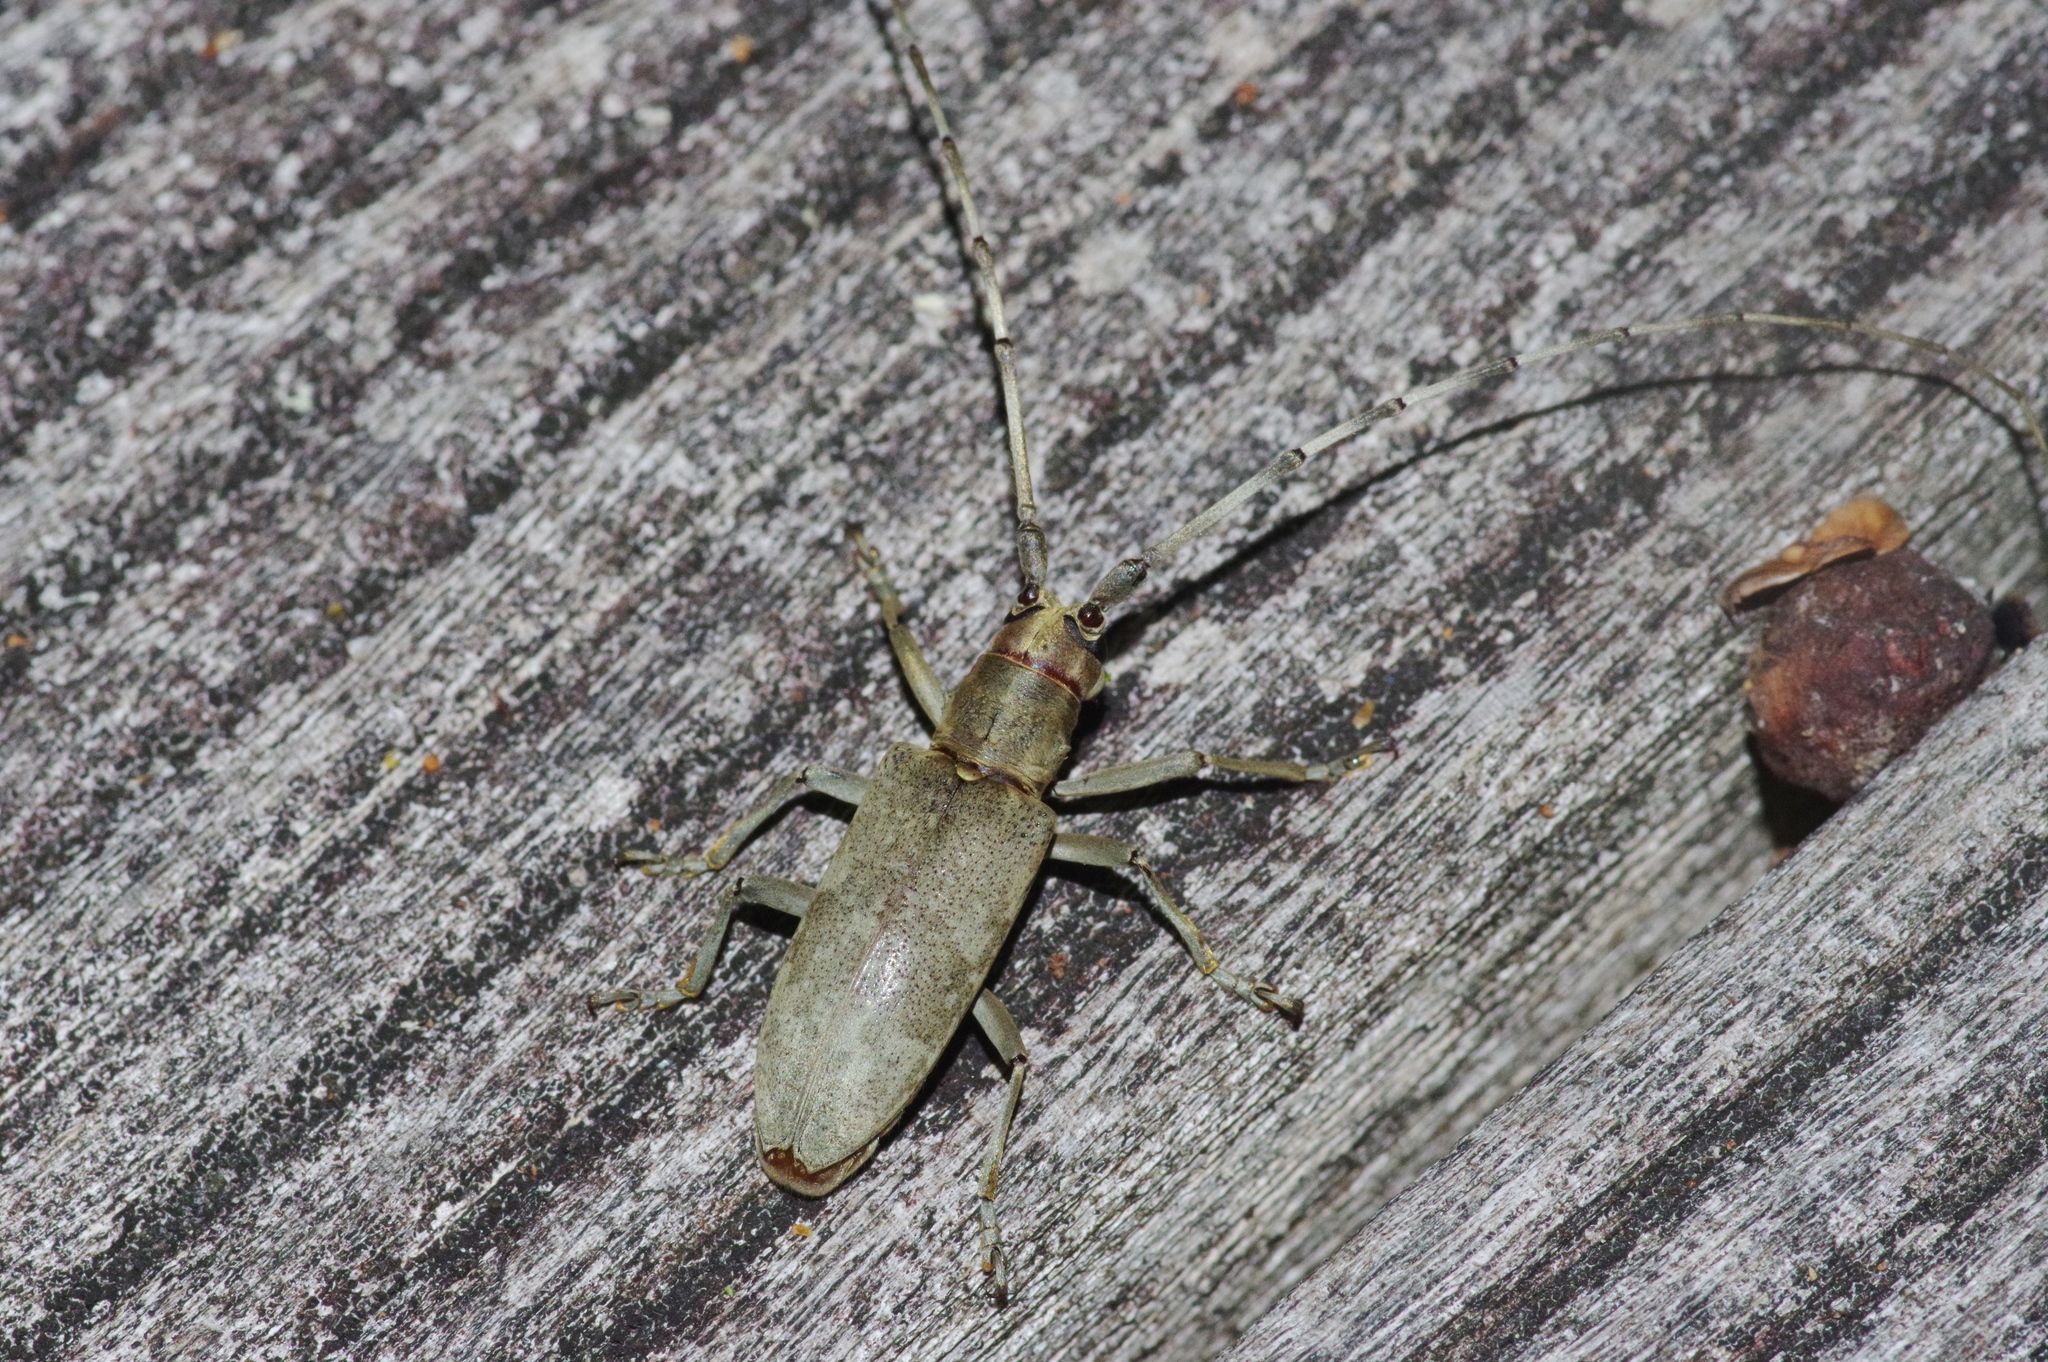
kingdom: Animalia
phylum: Arthropoda
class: Insecta
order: Coleoptera
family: Cerambycidae
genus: Psacothea
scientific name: Psacothea hilaris
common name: Yellow-spotted longicorn beetle
